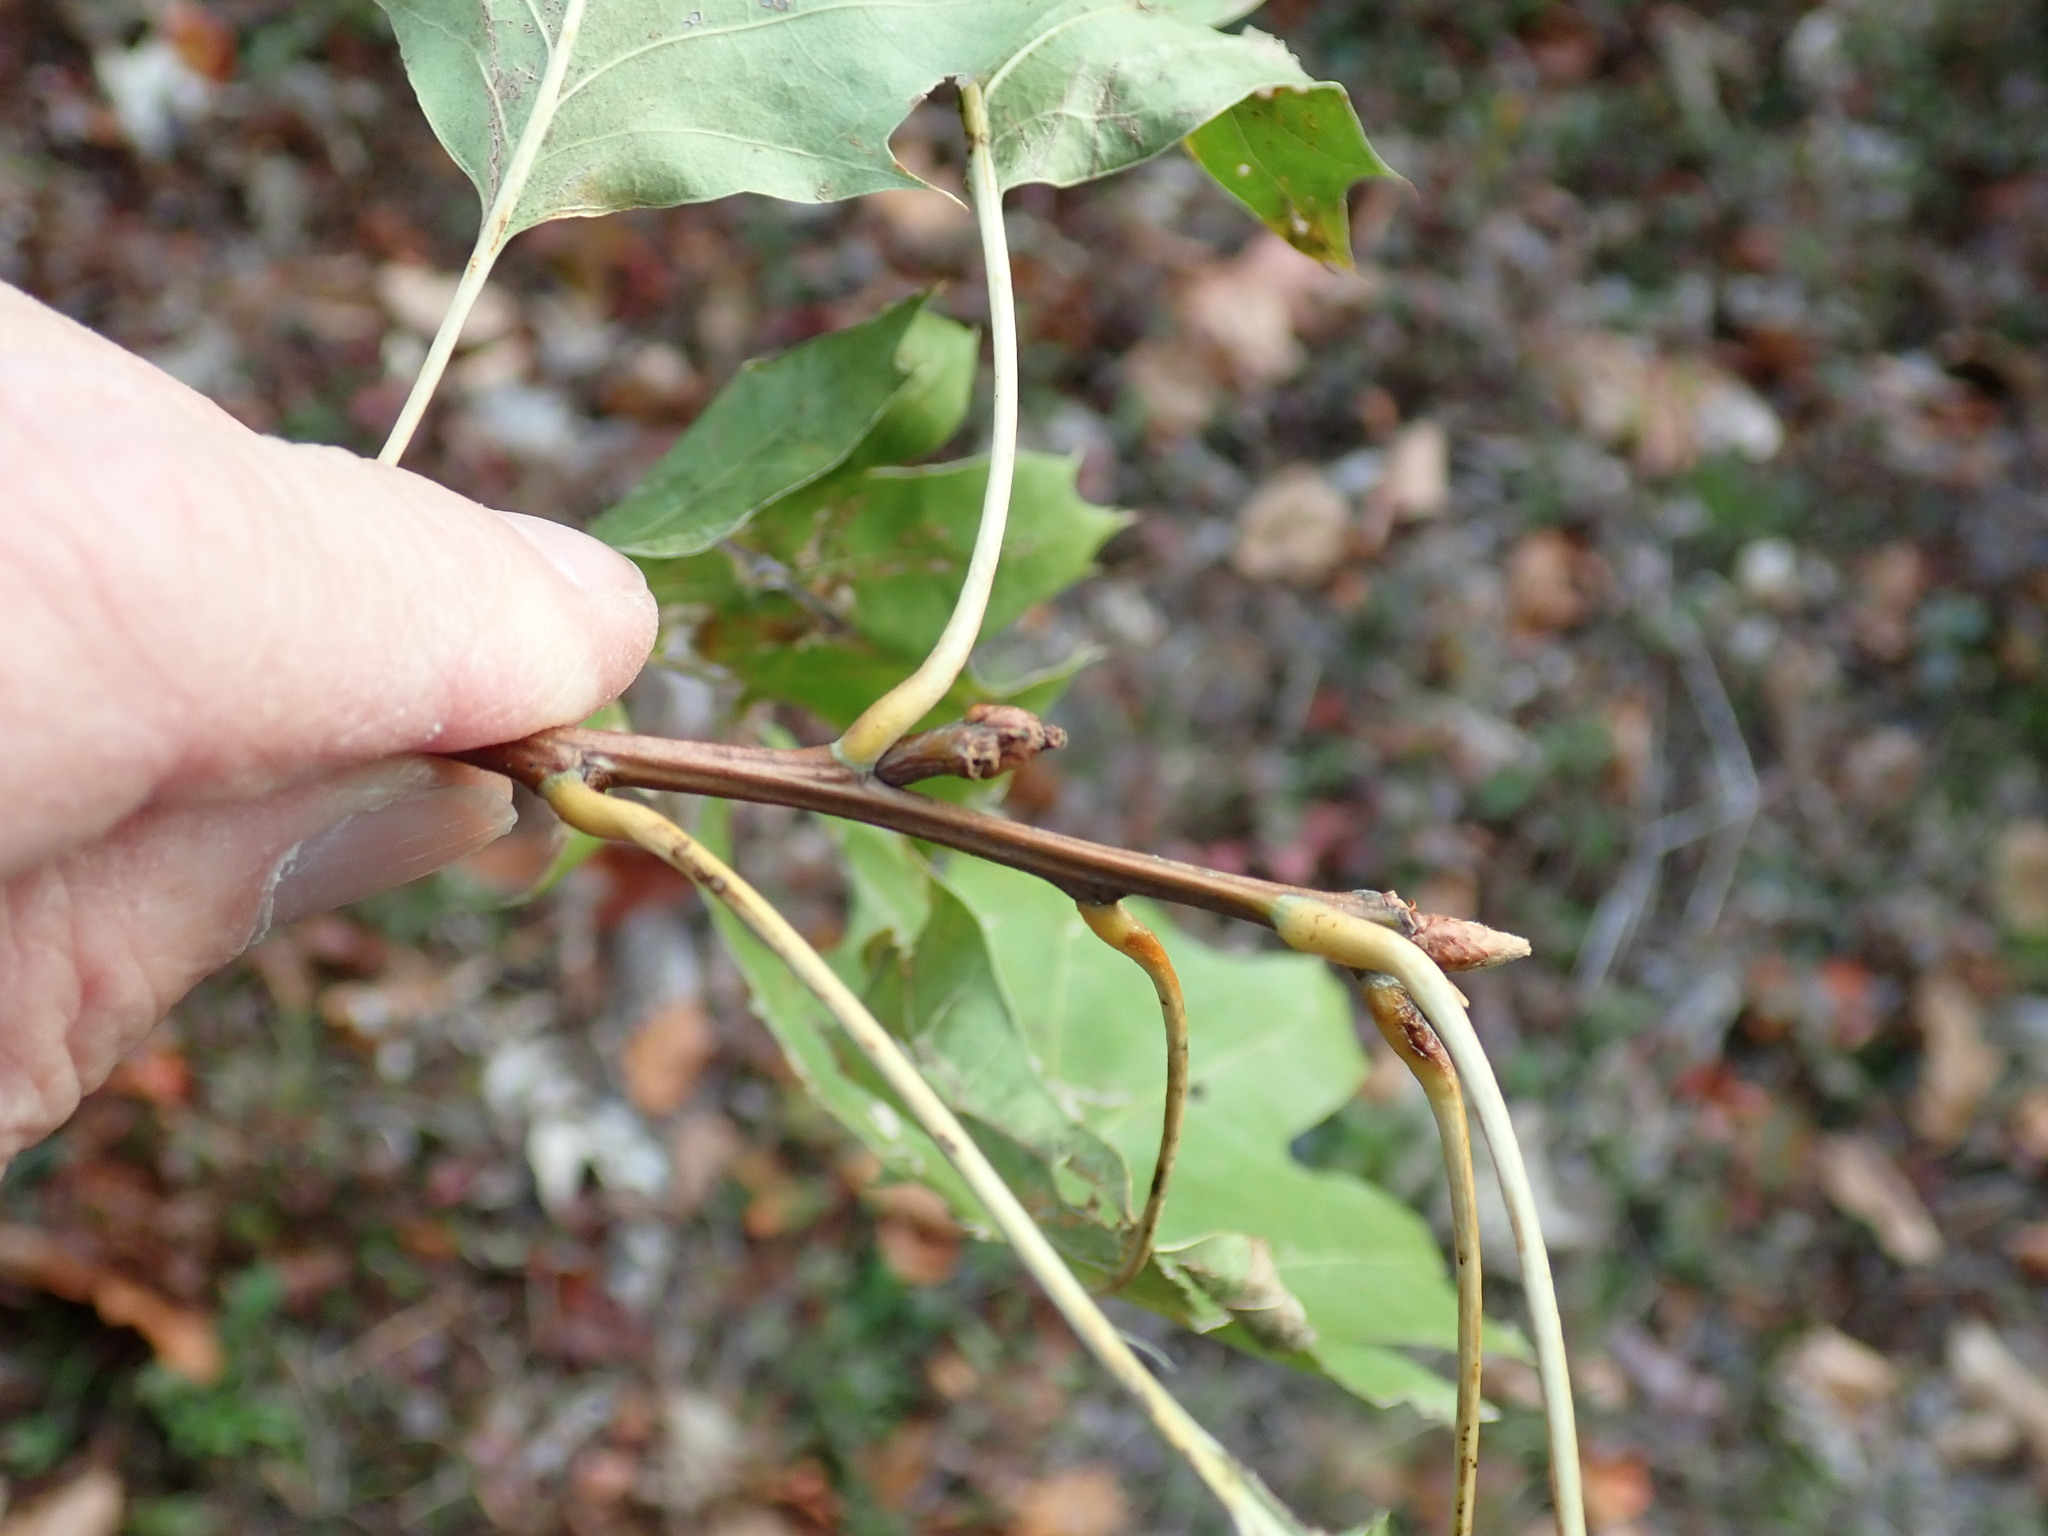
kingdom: Plantae
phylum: Tracheophyta
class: Magnoliopsida
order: Fagales
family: Fagaceae
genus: Quercus
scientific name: Quercus rubra
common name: Red oak
